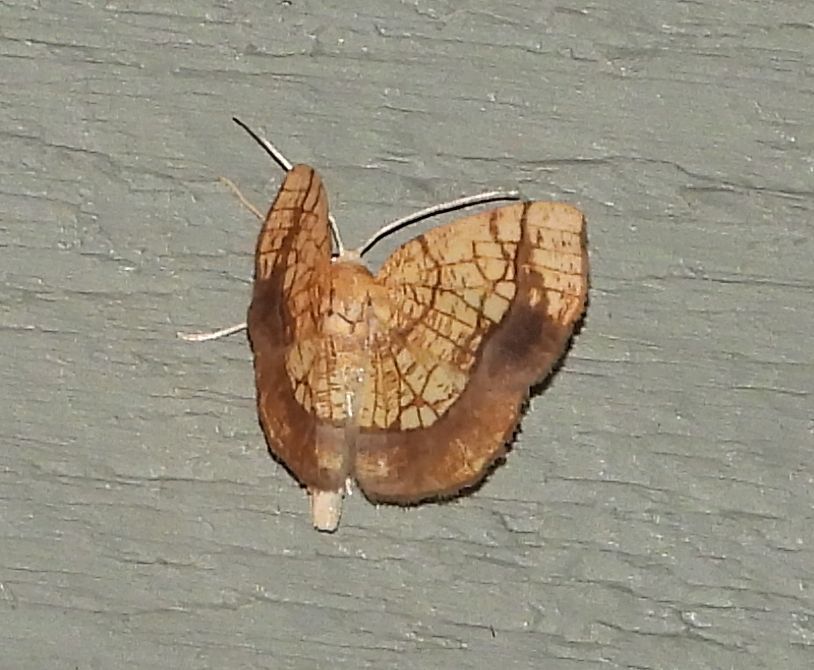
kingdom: Animalia
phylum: Arthropoda
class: Insecta
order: Lepidoptera
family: Geometridae
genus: Nematocampa
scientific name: Nematocampa resistaria
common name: Horned spanworm moth
